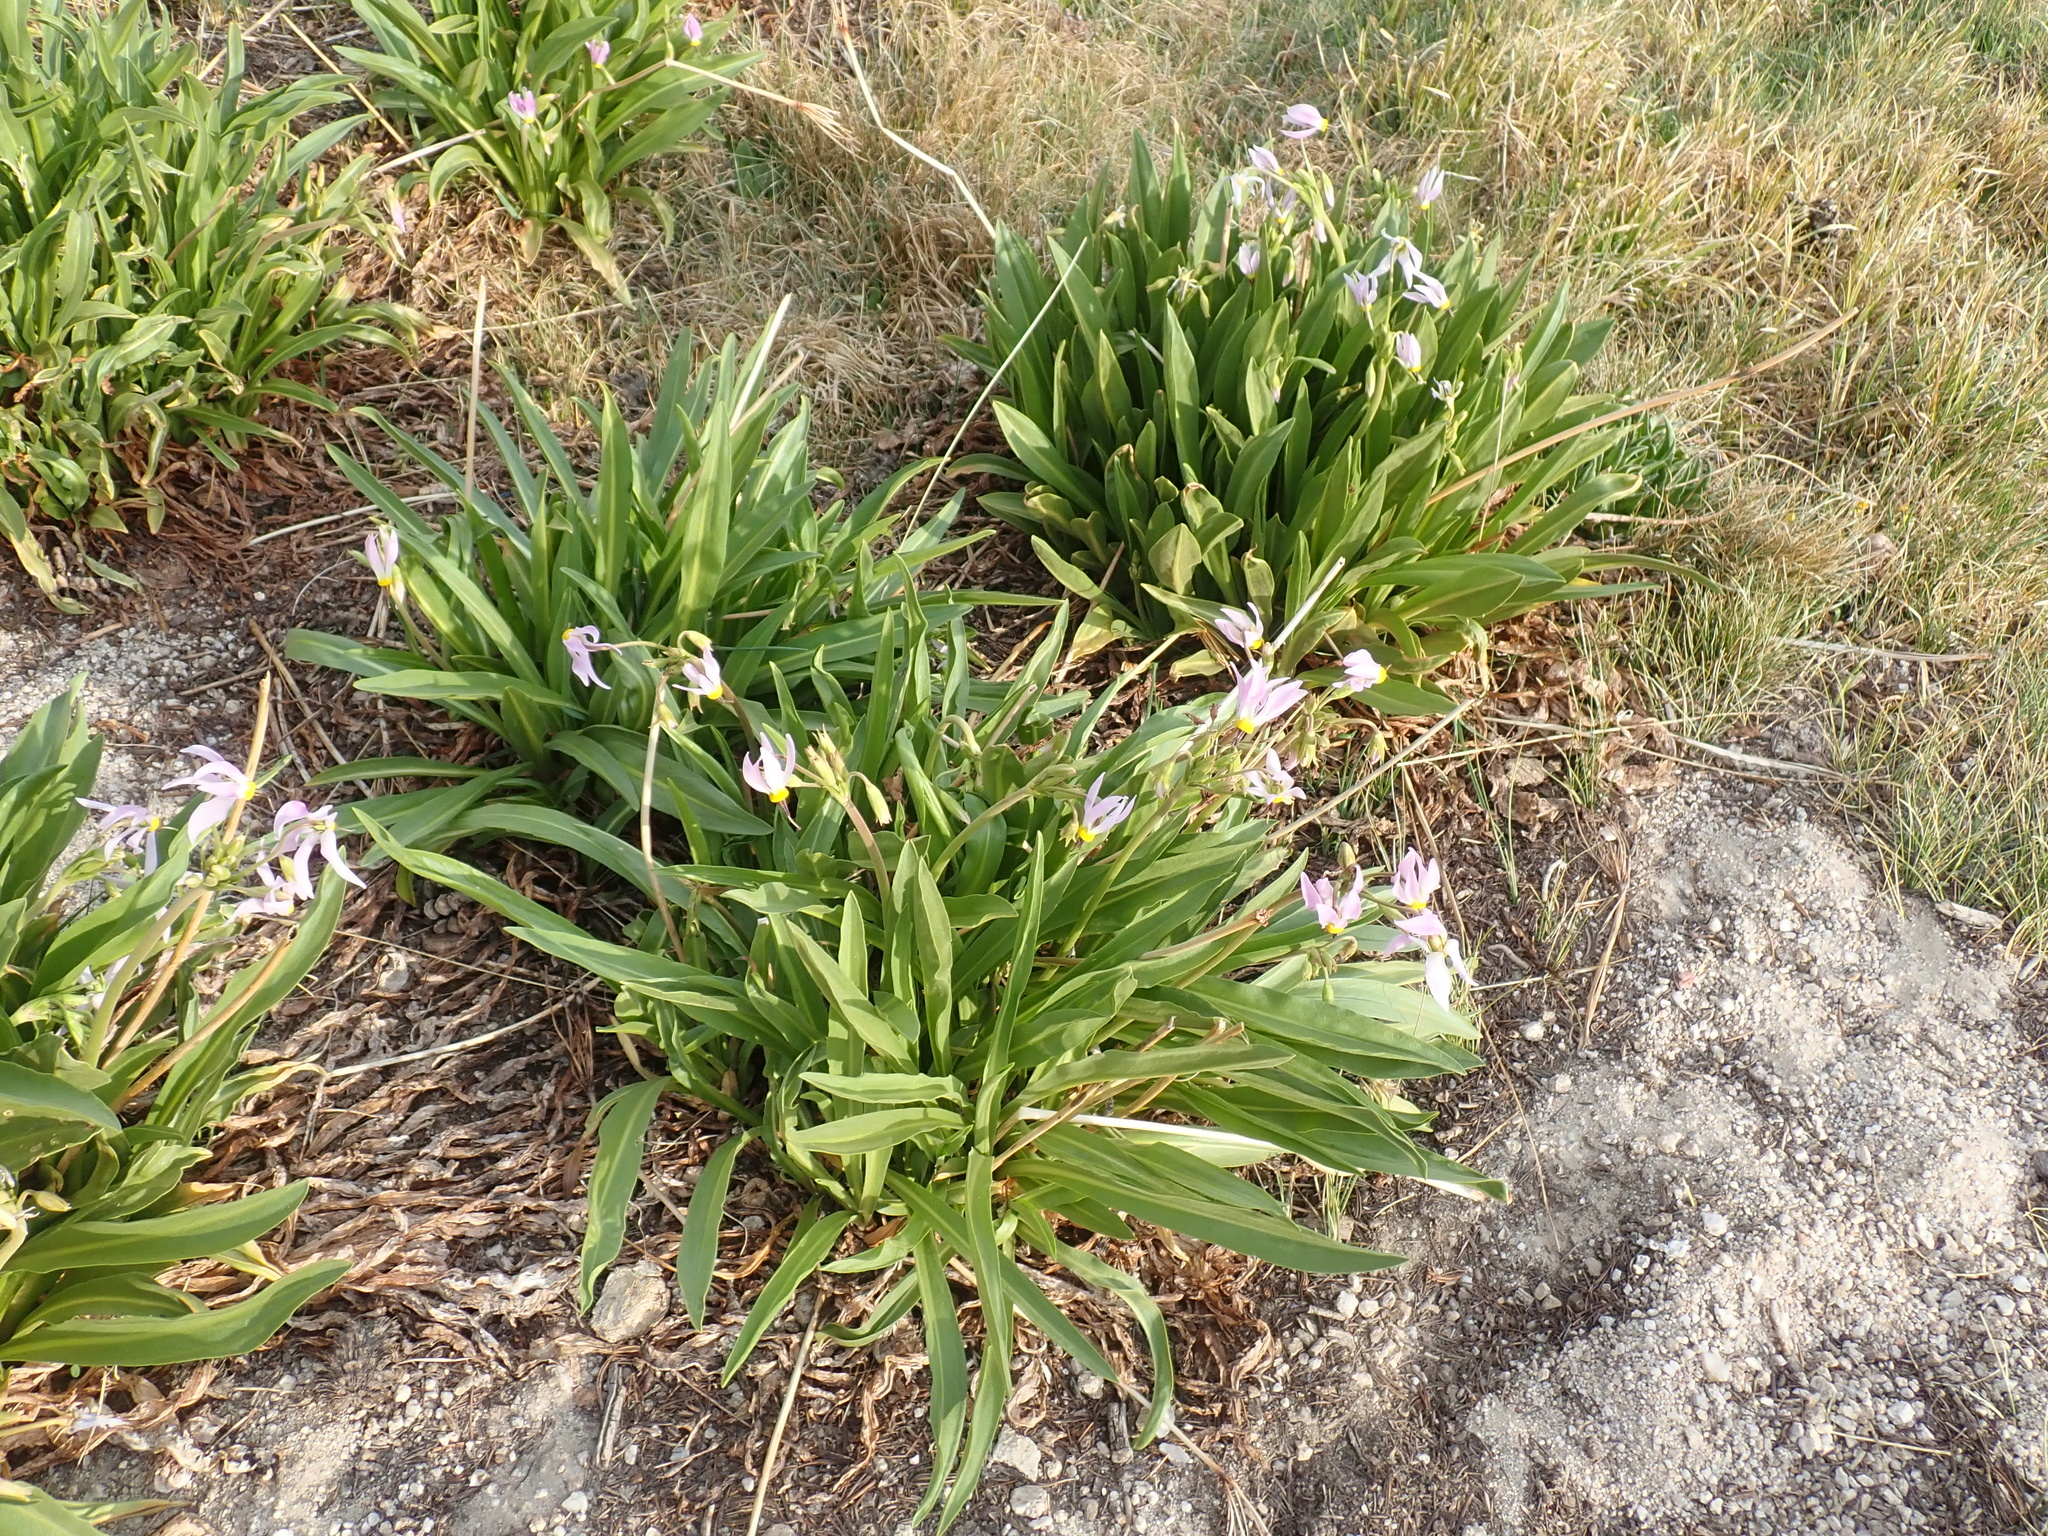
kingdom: Plantae
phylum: Tracheophyta
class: Magnoliopsida
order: Ericales
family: Primulaceae
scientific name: Primulaceae
